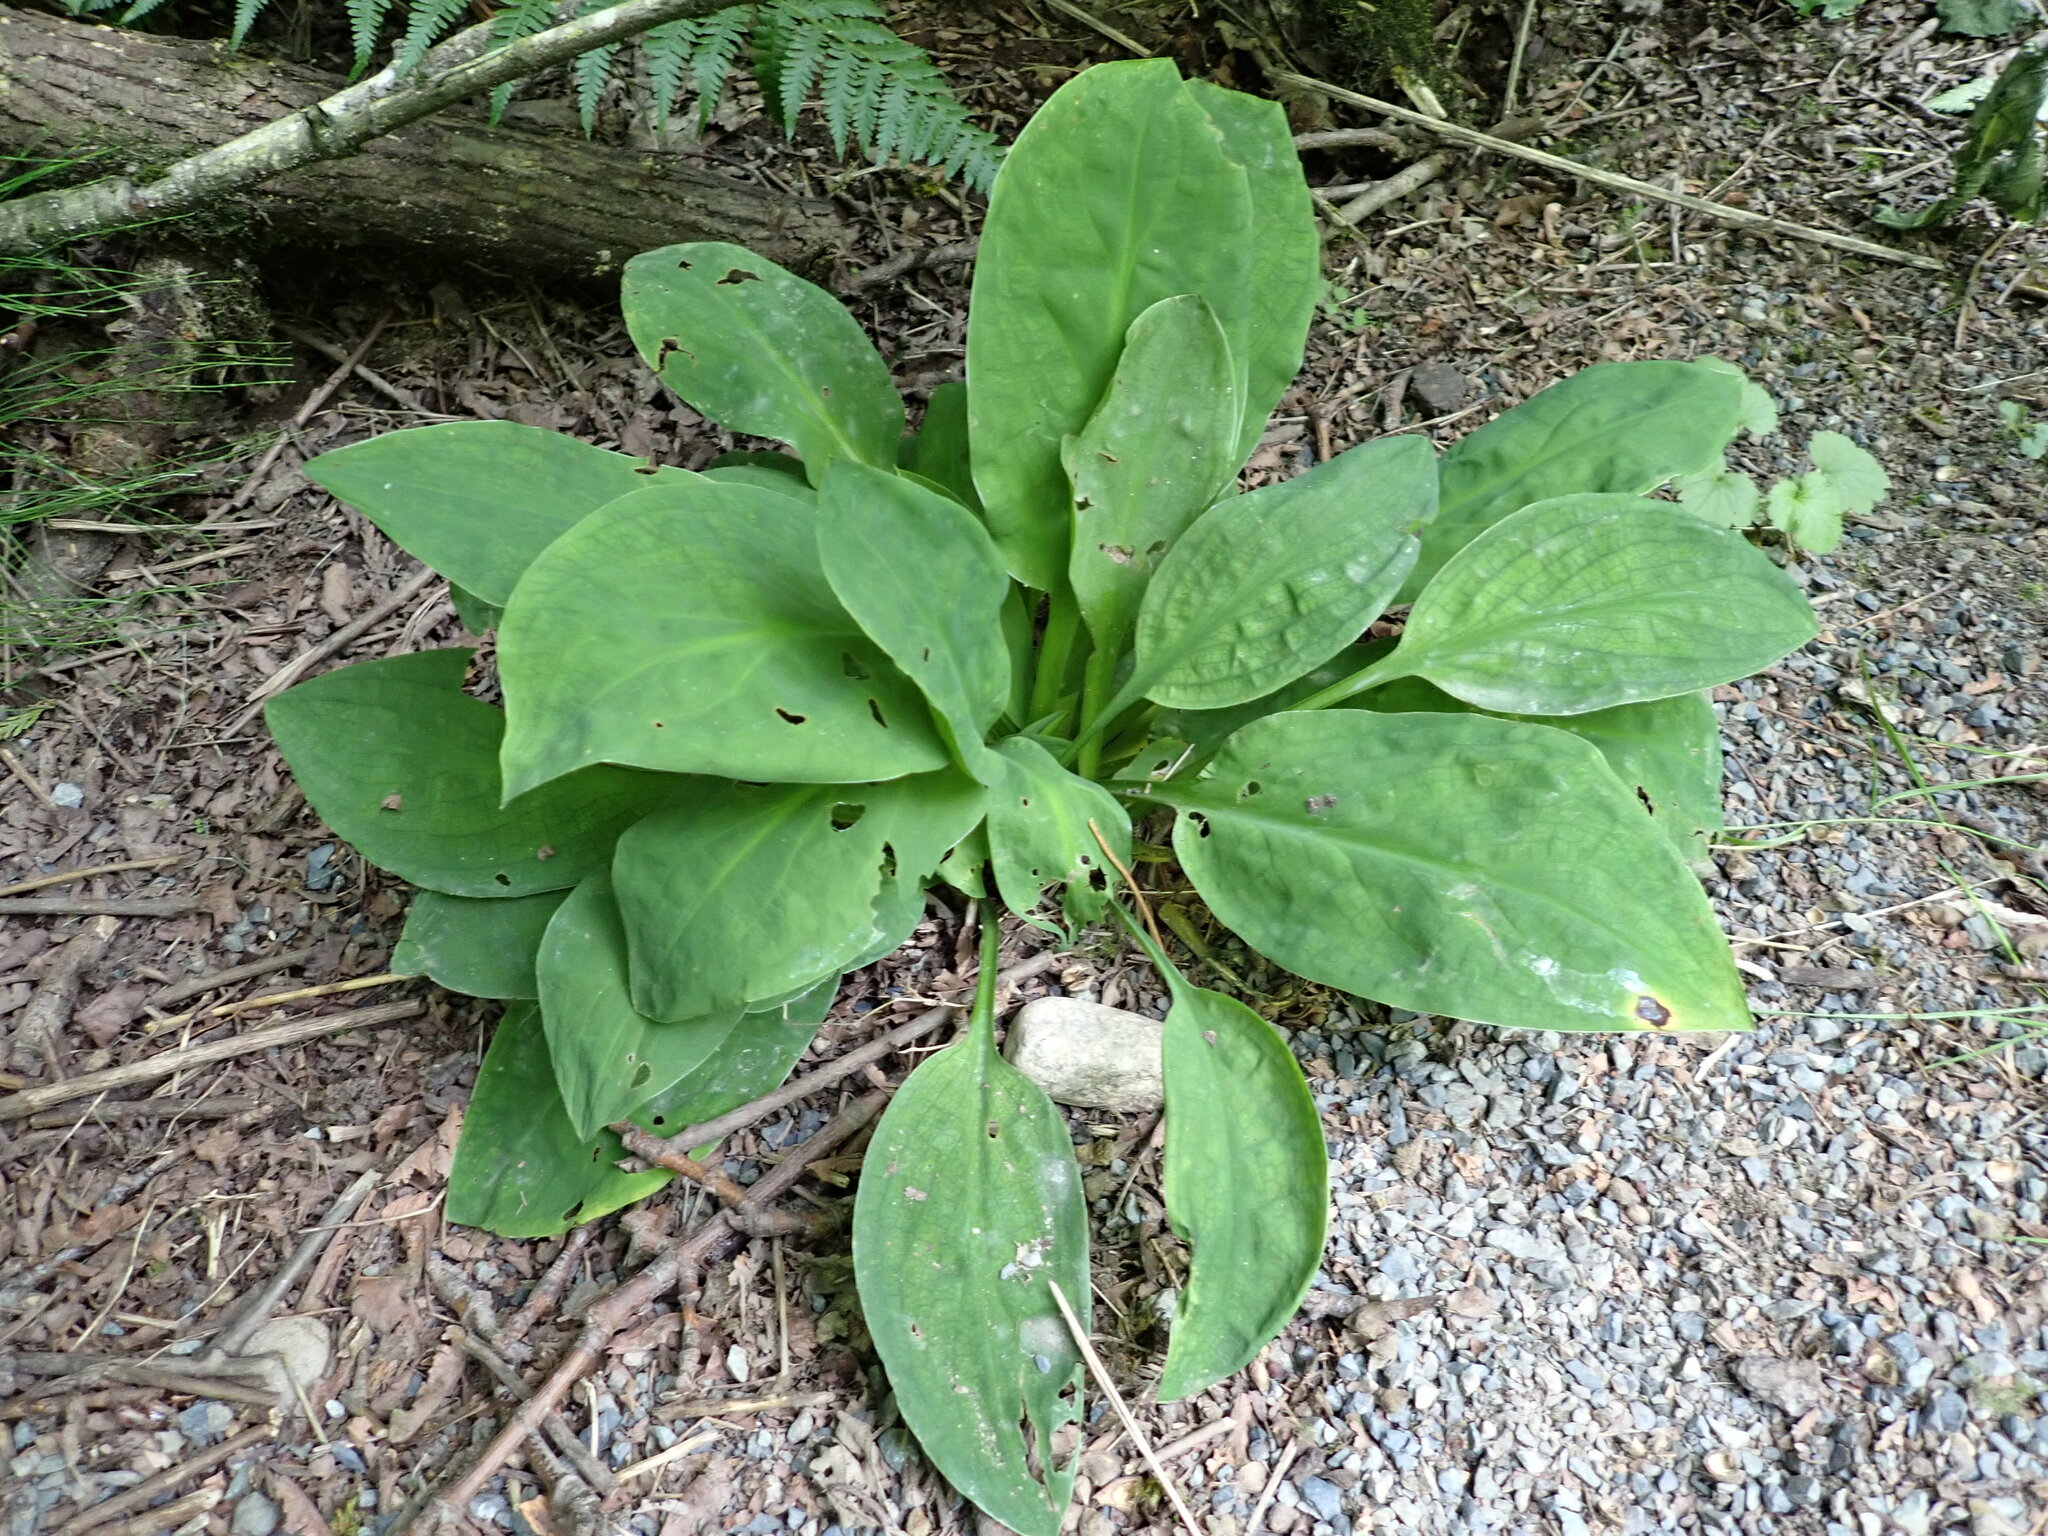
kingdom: Plantae
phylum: Tracheophyta
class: Liliopsida
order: Alismatales
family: Araceae
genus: Lysichiton
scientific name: Lysichiton americanus
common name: American skunk cabbage
